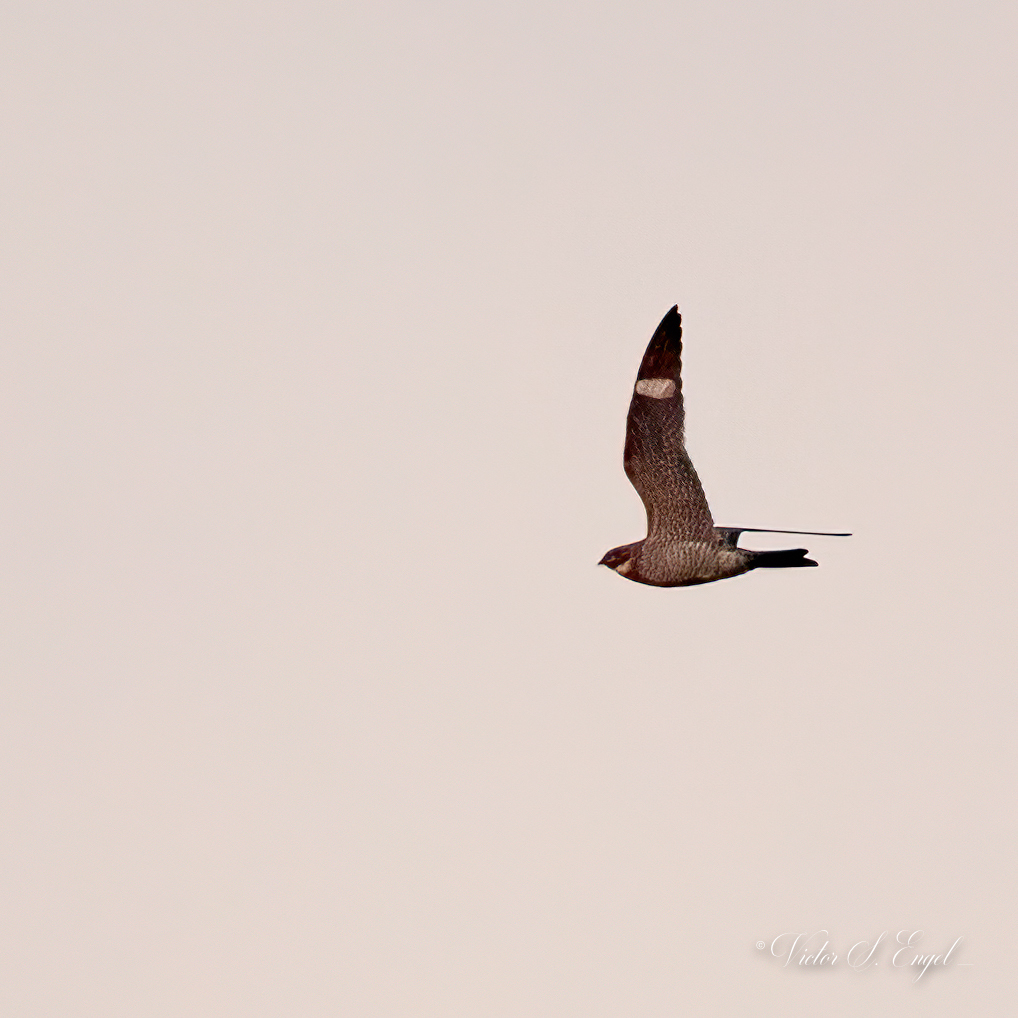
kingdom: Animalia
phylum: Chordata
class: Aves
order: Caprimulgiformes
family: Caprimulgidae
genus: Chordeiles
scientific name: Chordeiles minor
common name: Common nighthawk
